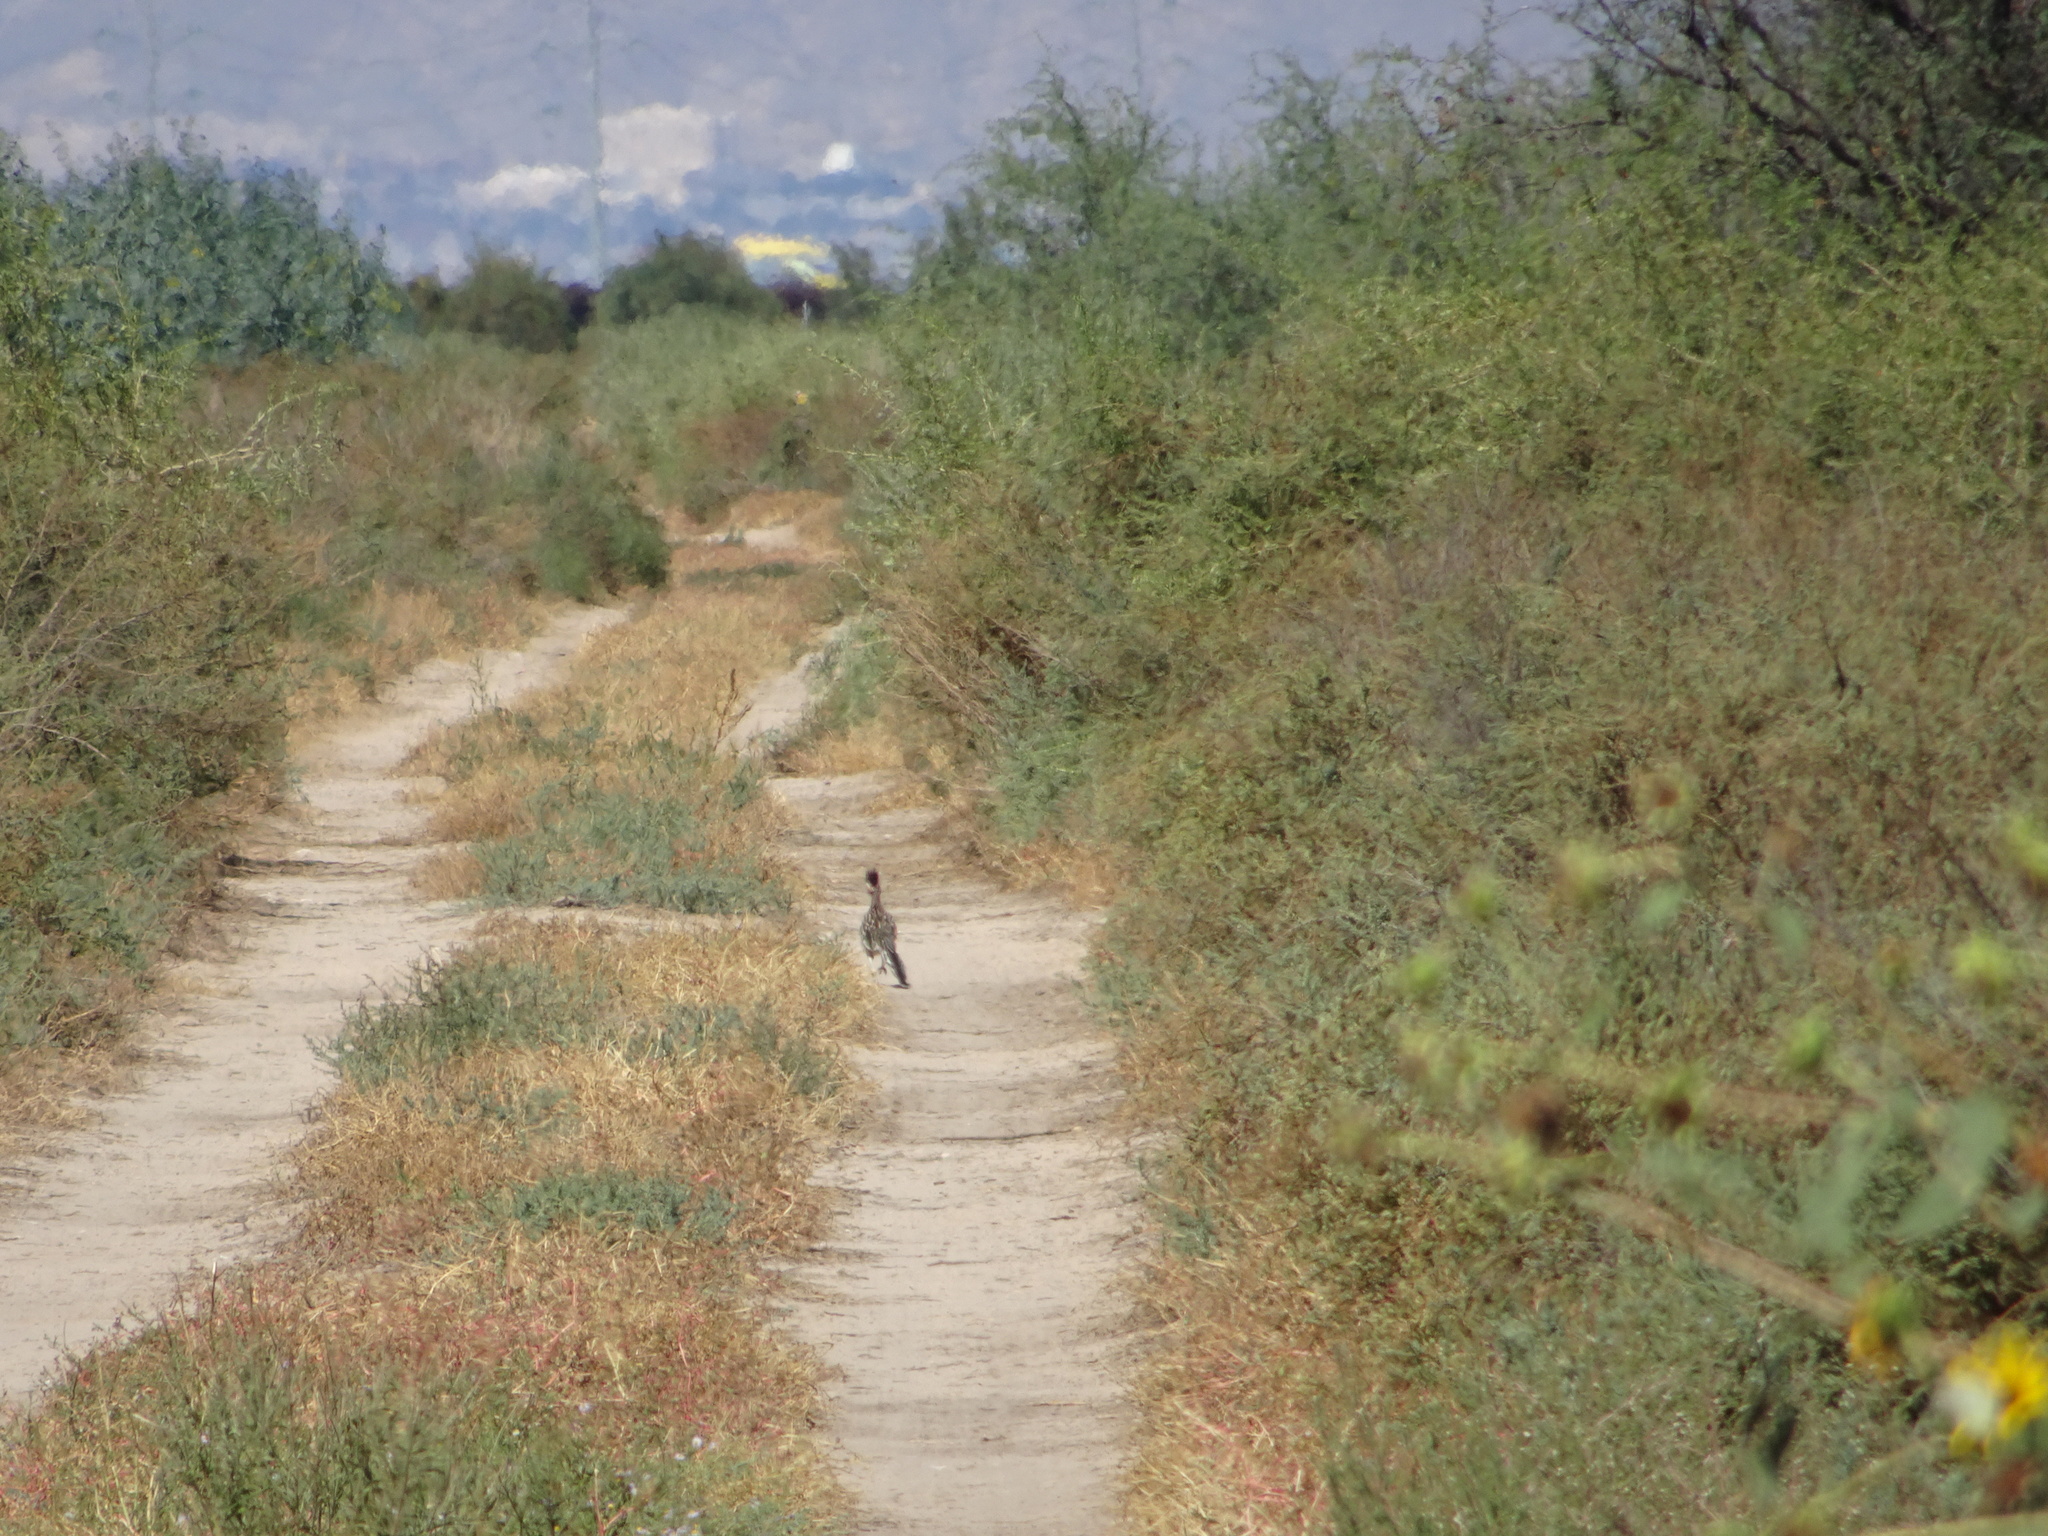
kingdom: Animalia
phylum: Chordata
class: Aves
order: Cuculiformes
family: Cuculidae
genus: Geococcyx
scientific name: Geococcyx californianus
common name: Greater roadrunner
